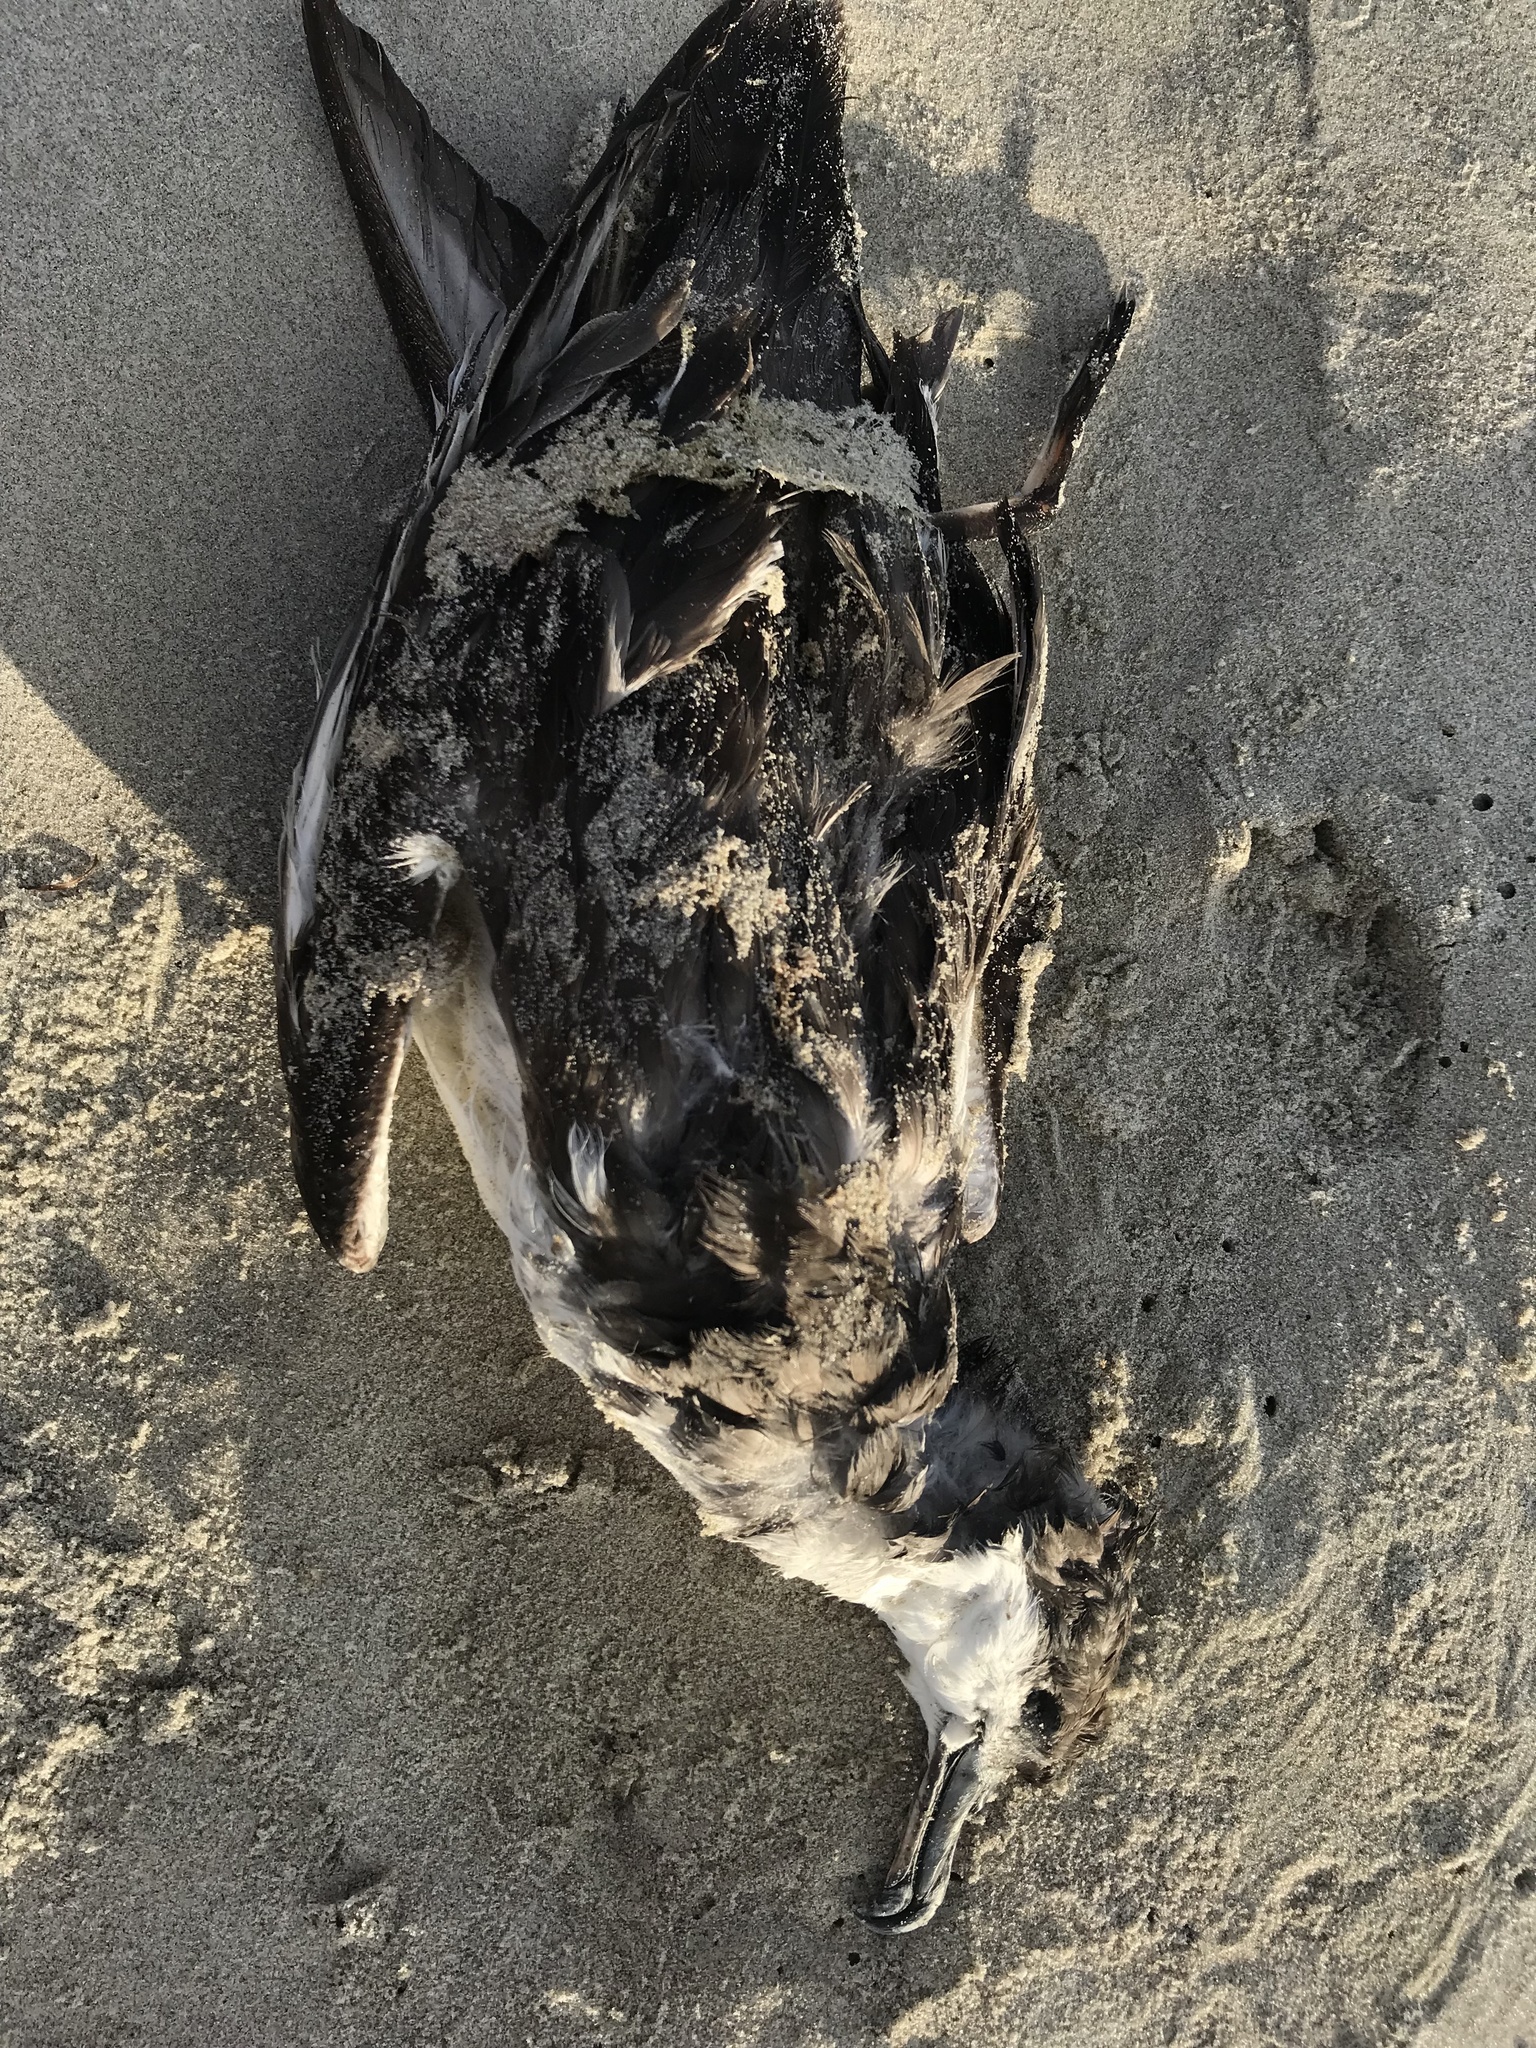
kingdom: Animalia
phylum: Chordata
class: Aves
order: Procellariiformes
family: Procellariidae
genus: Puffinus
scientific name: Puffinus bulleri
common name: Buller's shearwater
